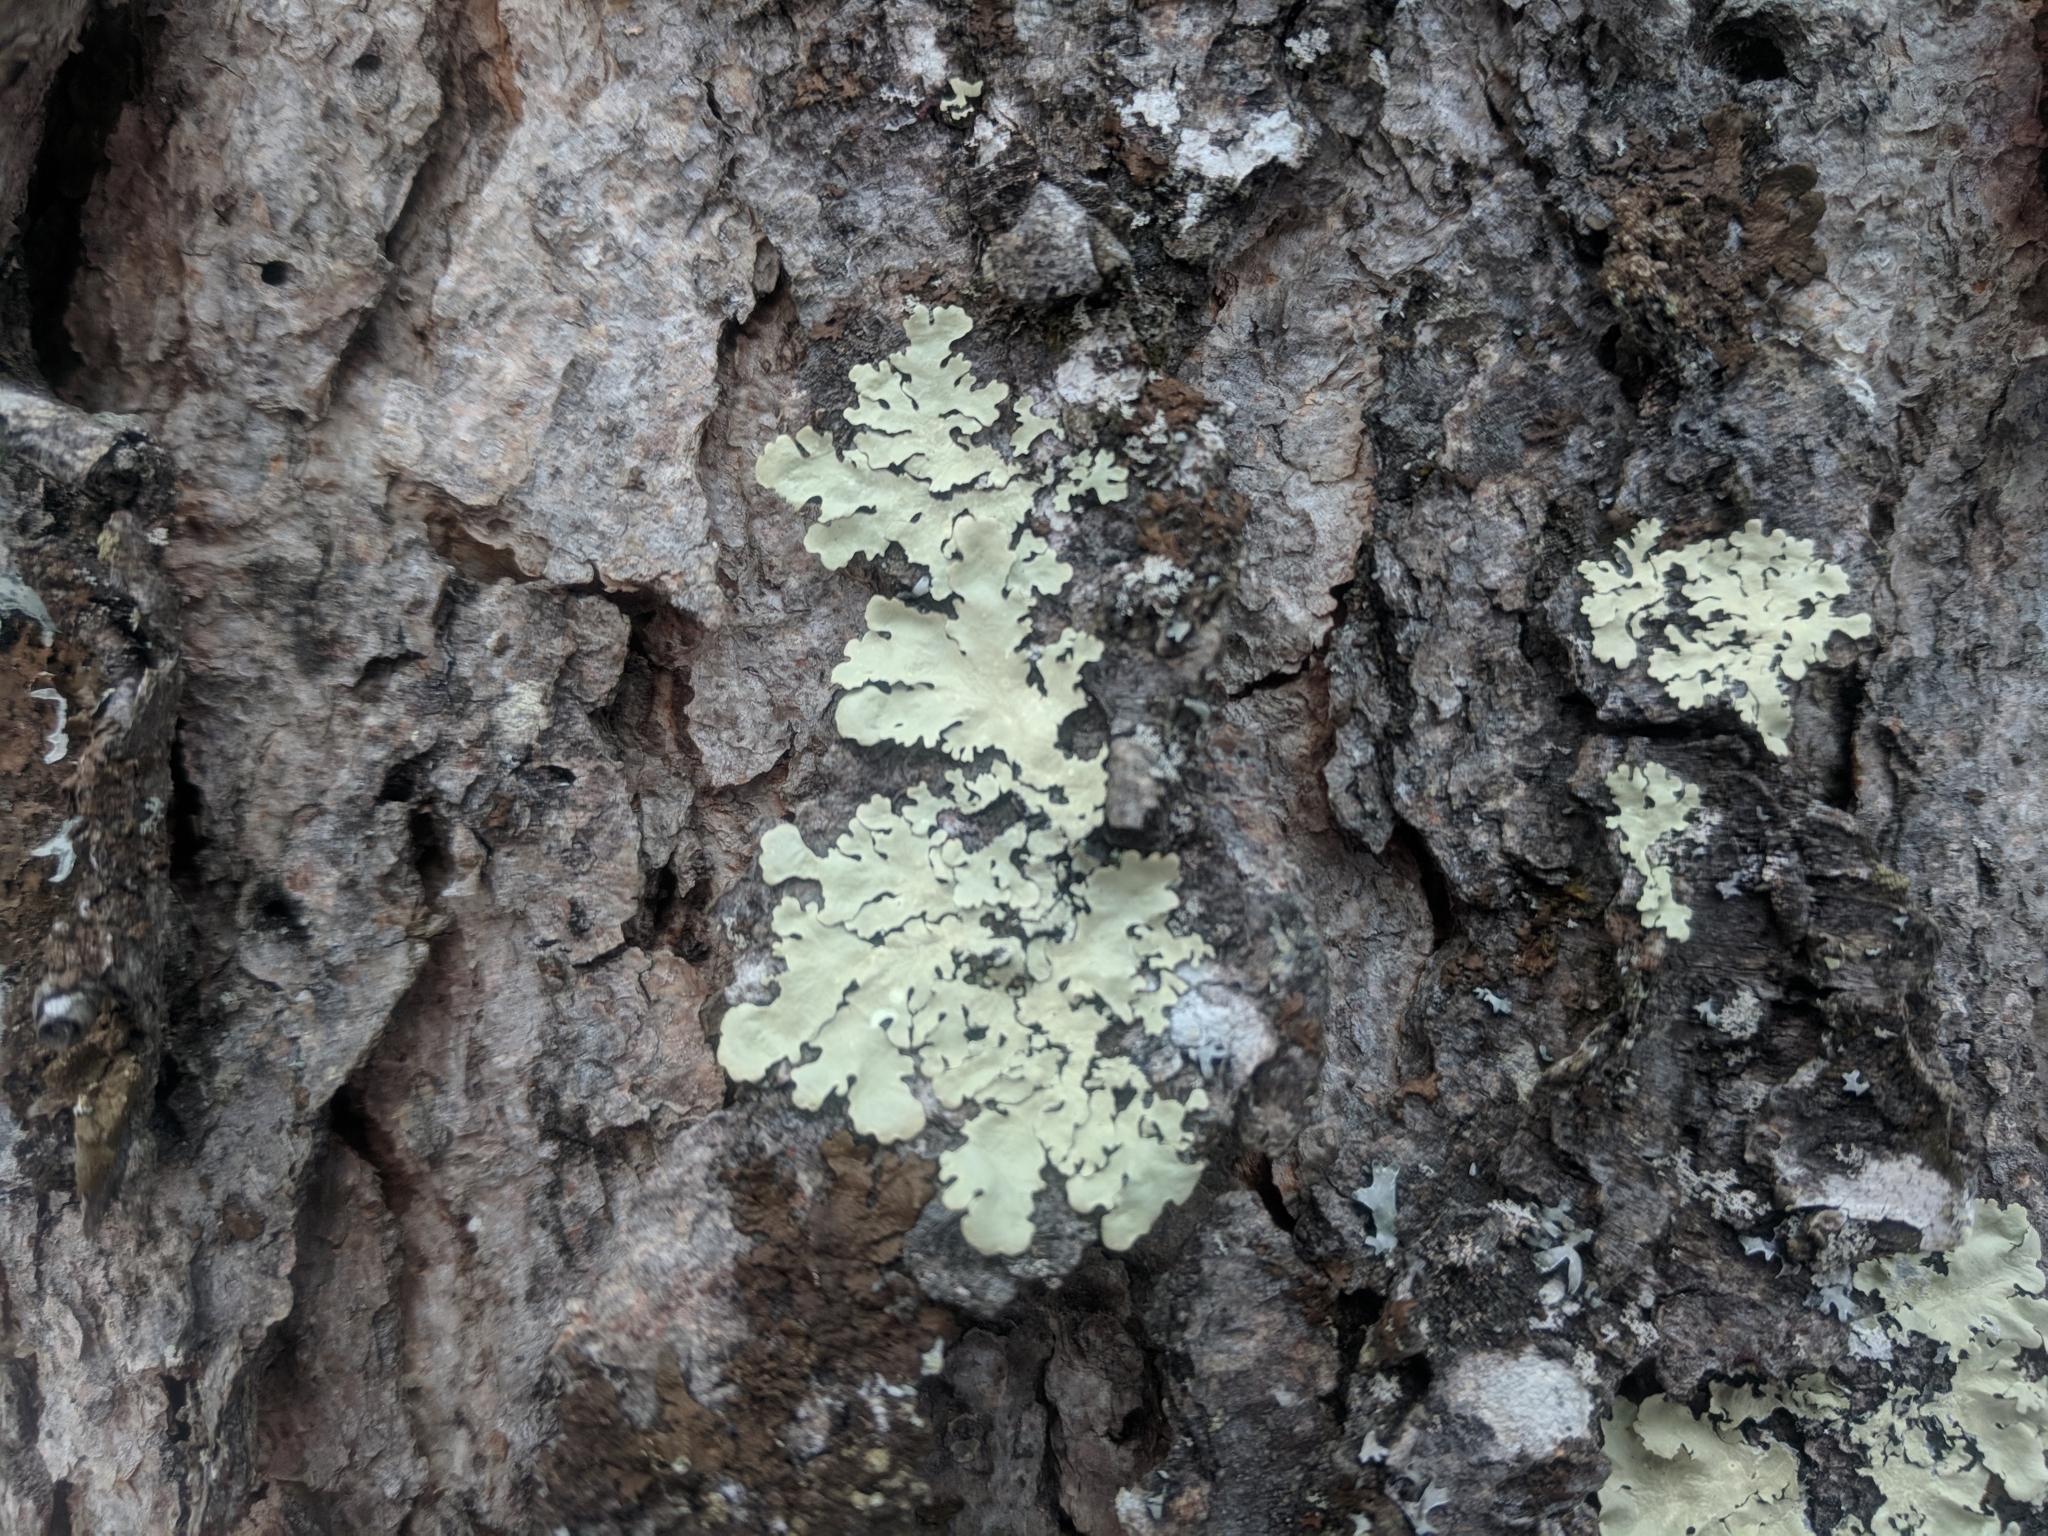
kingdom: Fungi
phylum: Ascomycota
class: Lecanoromycetes
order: Lecanorales
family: Parmeliaceae
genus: Flavoparmelia
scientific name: Flavoparmelia caperata
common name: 40-mile per hour lichen
